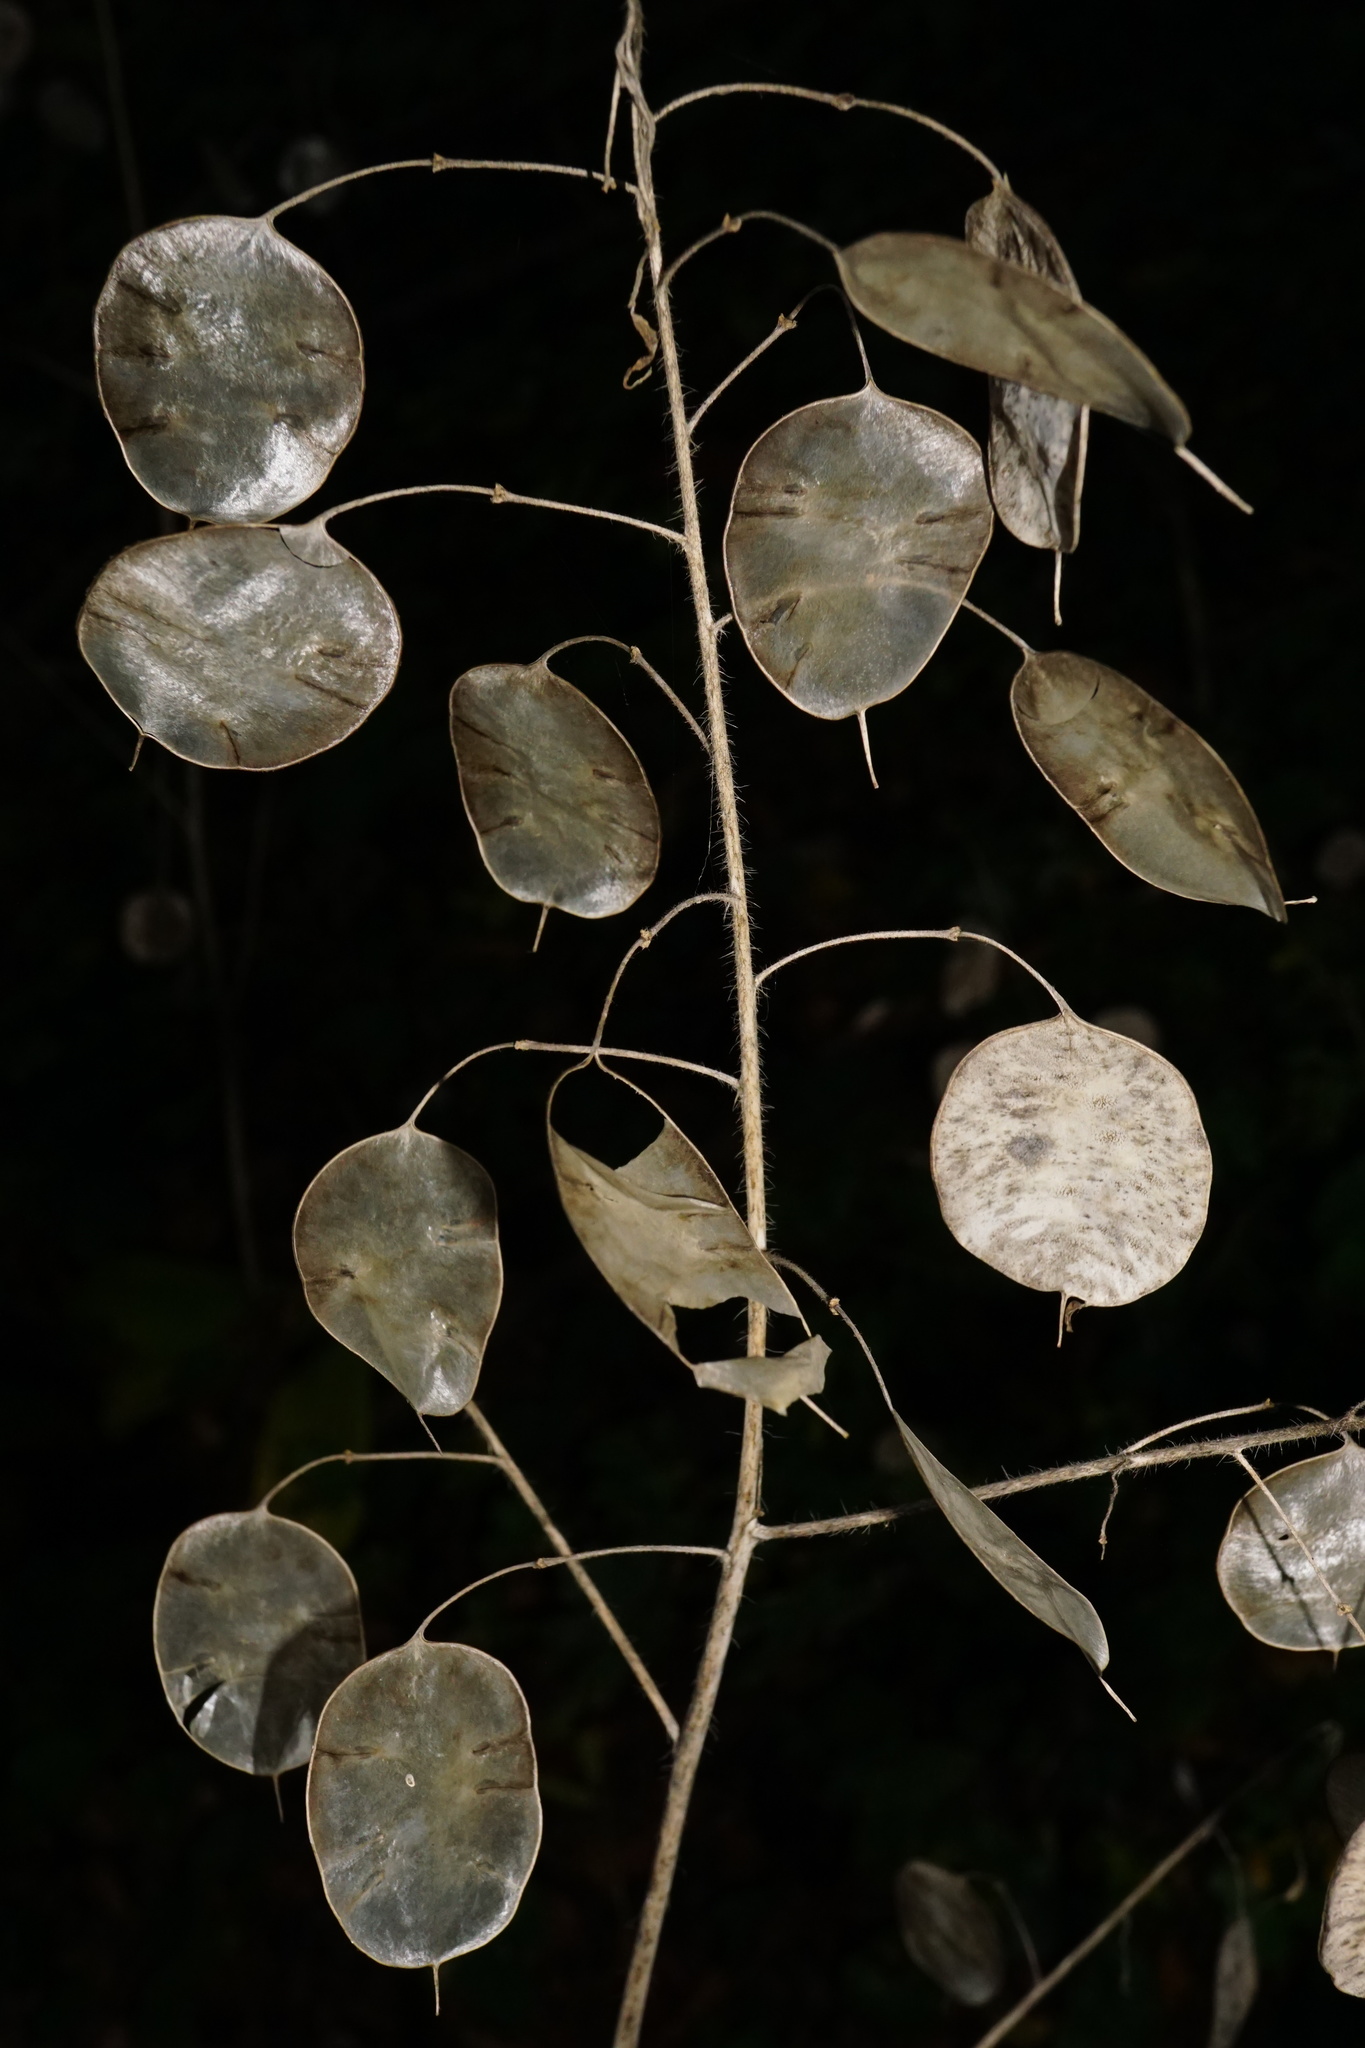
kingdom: Plantae
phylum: Tracheophyta
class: Magnoliopsida
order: Brassicales
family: Brassicaceae
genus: Lunaria
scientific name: Lunaria annua
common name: Honesty
